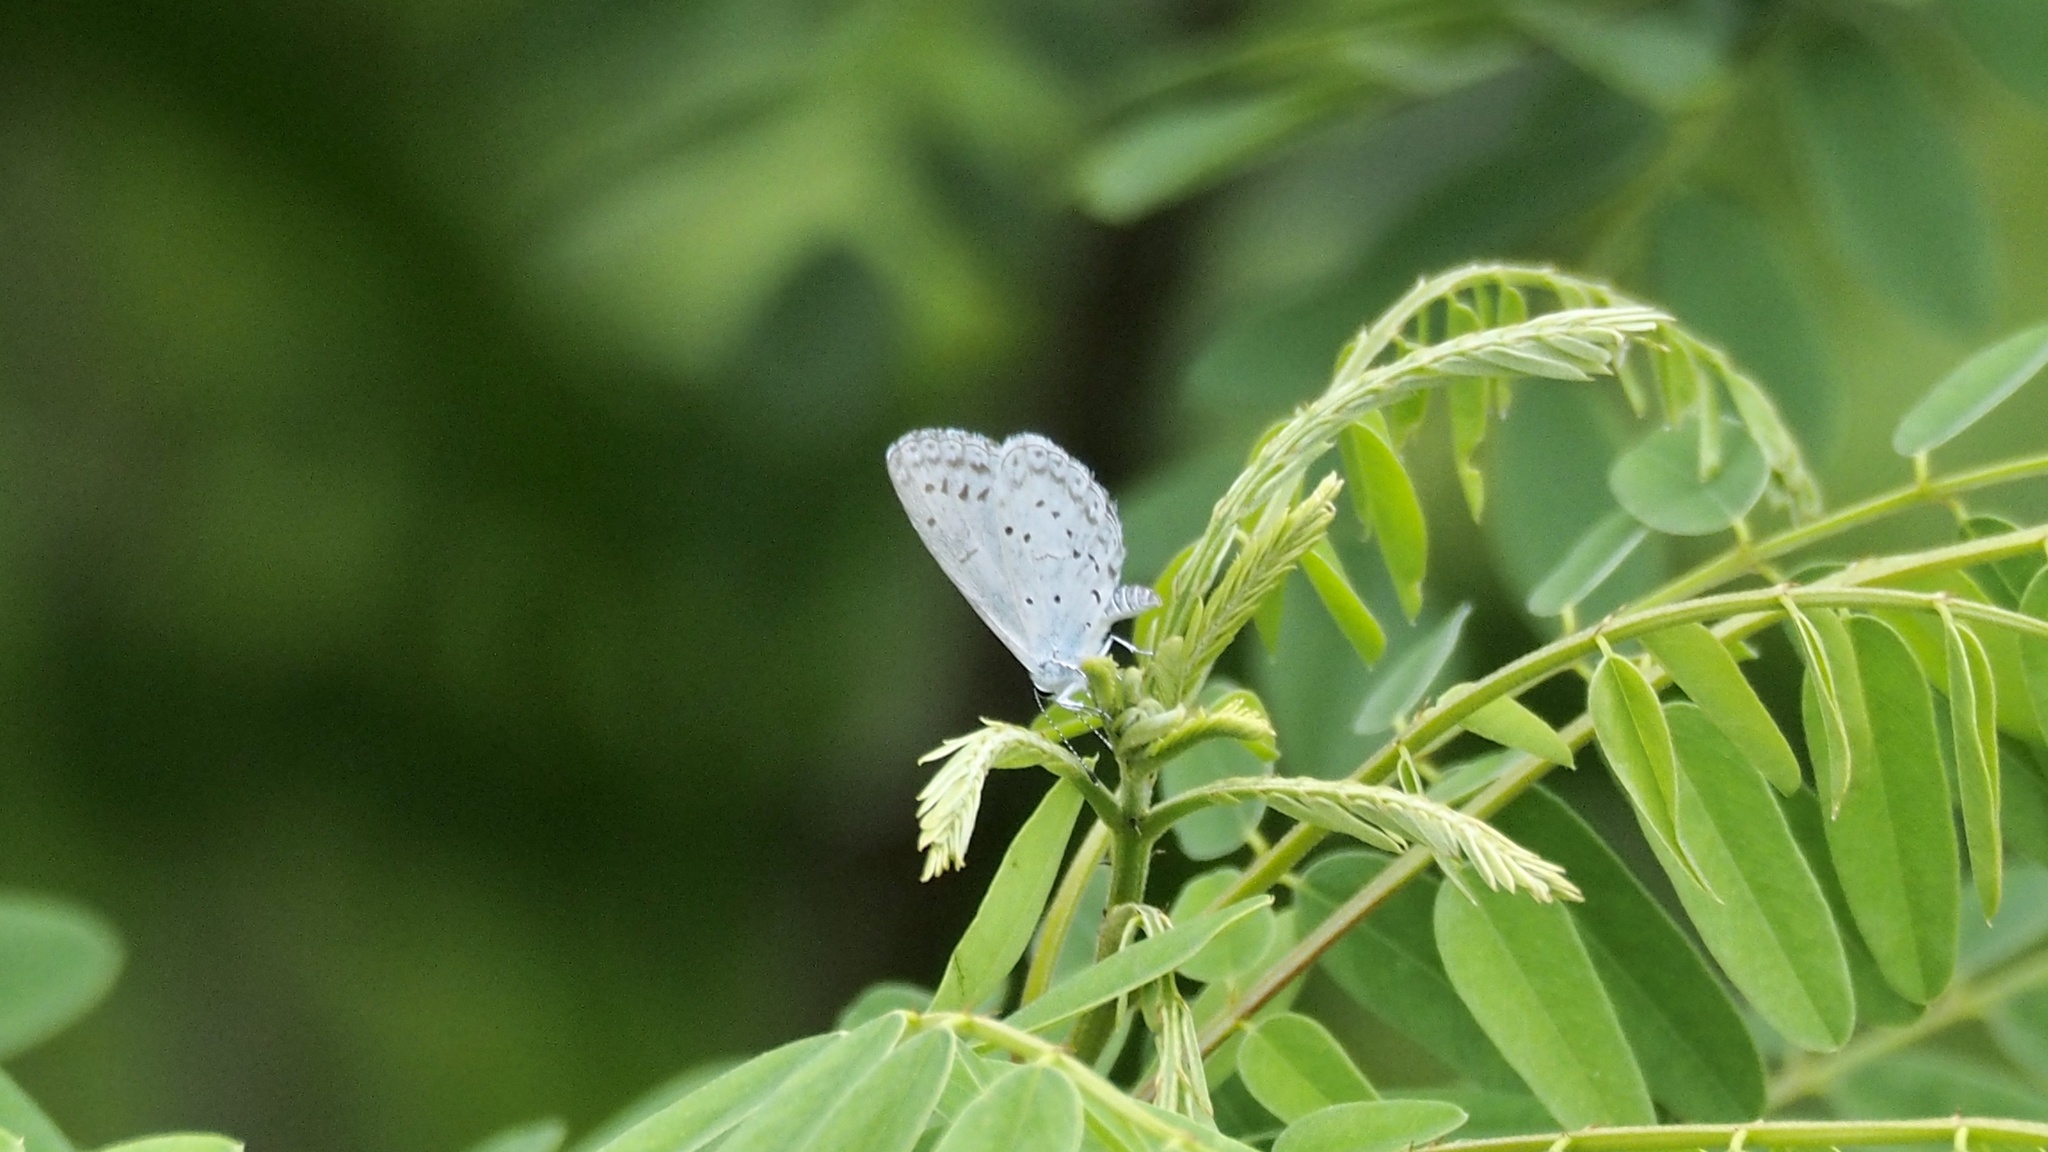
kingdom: Animalia
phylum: Arthropoda
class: Insecta
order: Lepidoptera
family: Lycaenidae
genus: Celastrina
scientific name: Celastrina argiolus
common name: Holly blue
